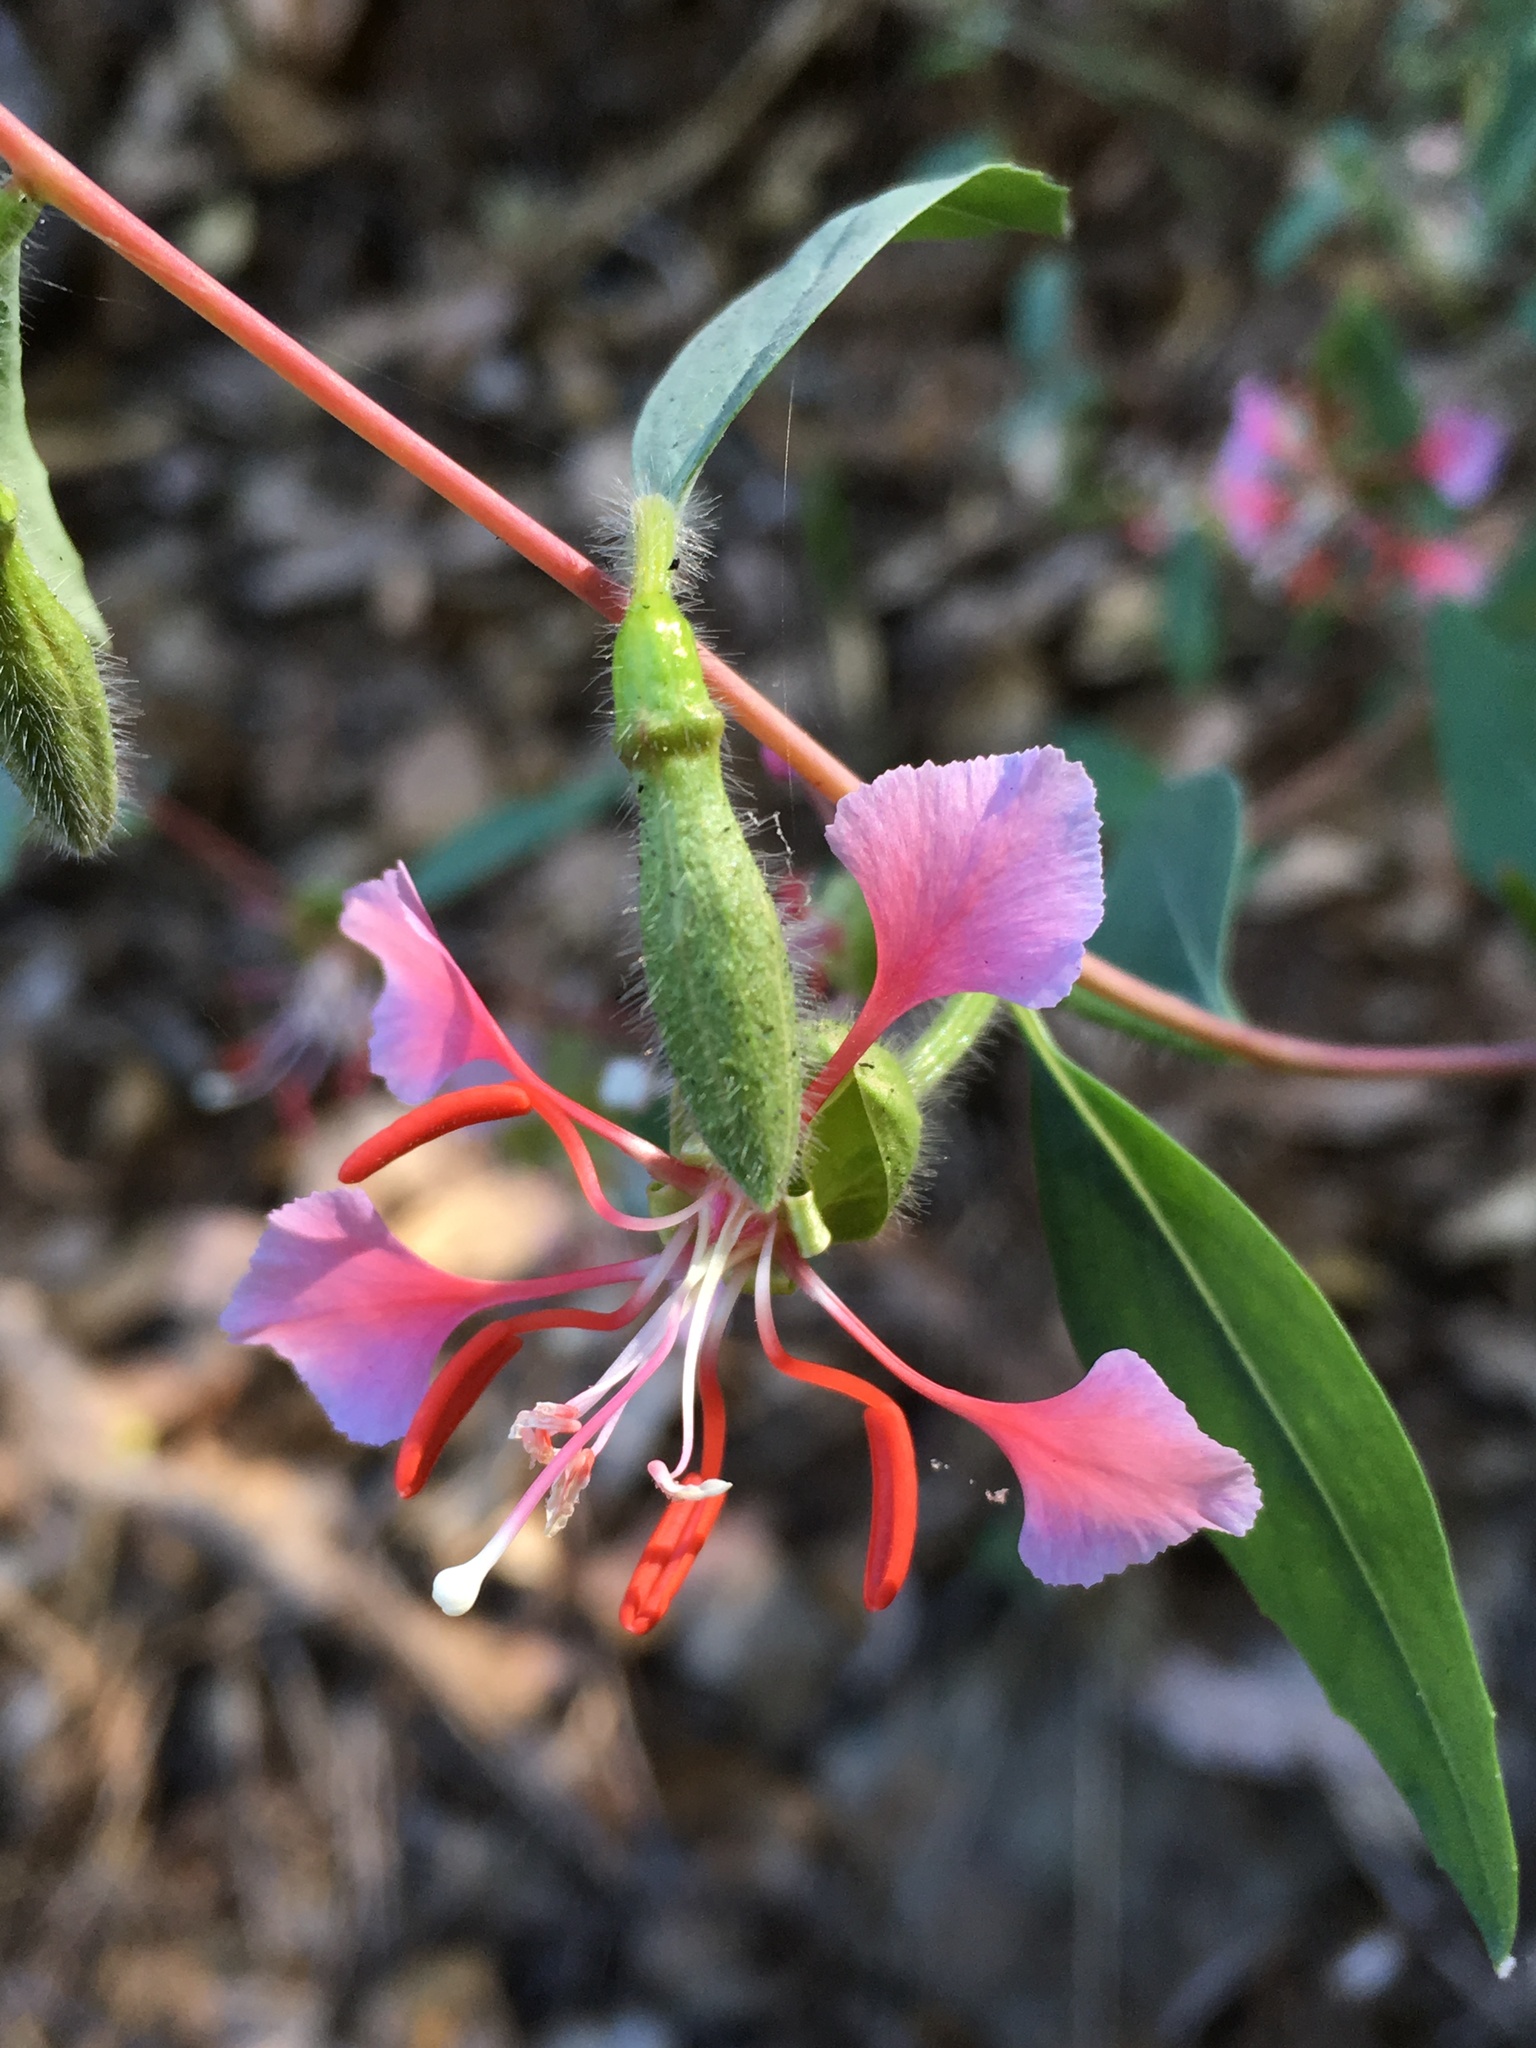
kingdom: Plantae
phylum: Tracheophyta
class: Magnoliopsida
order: Myrtales
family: Onagraceae
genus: Clarkia
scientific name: Clarkia unguiculata
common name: Clarkia
